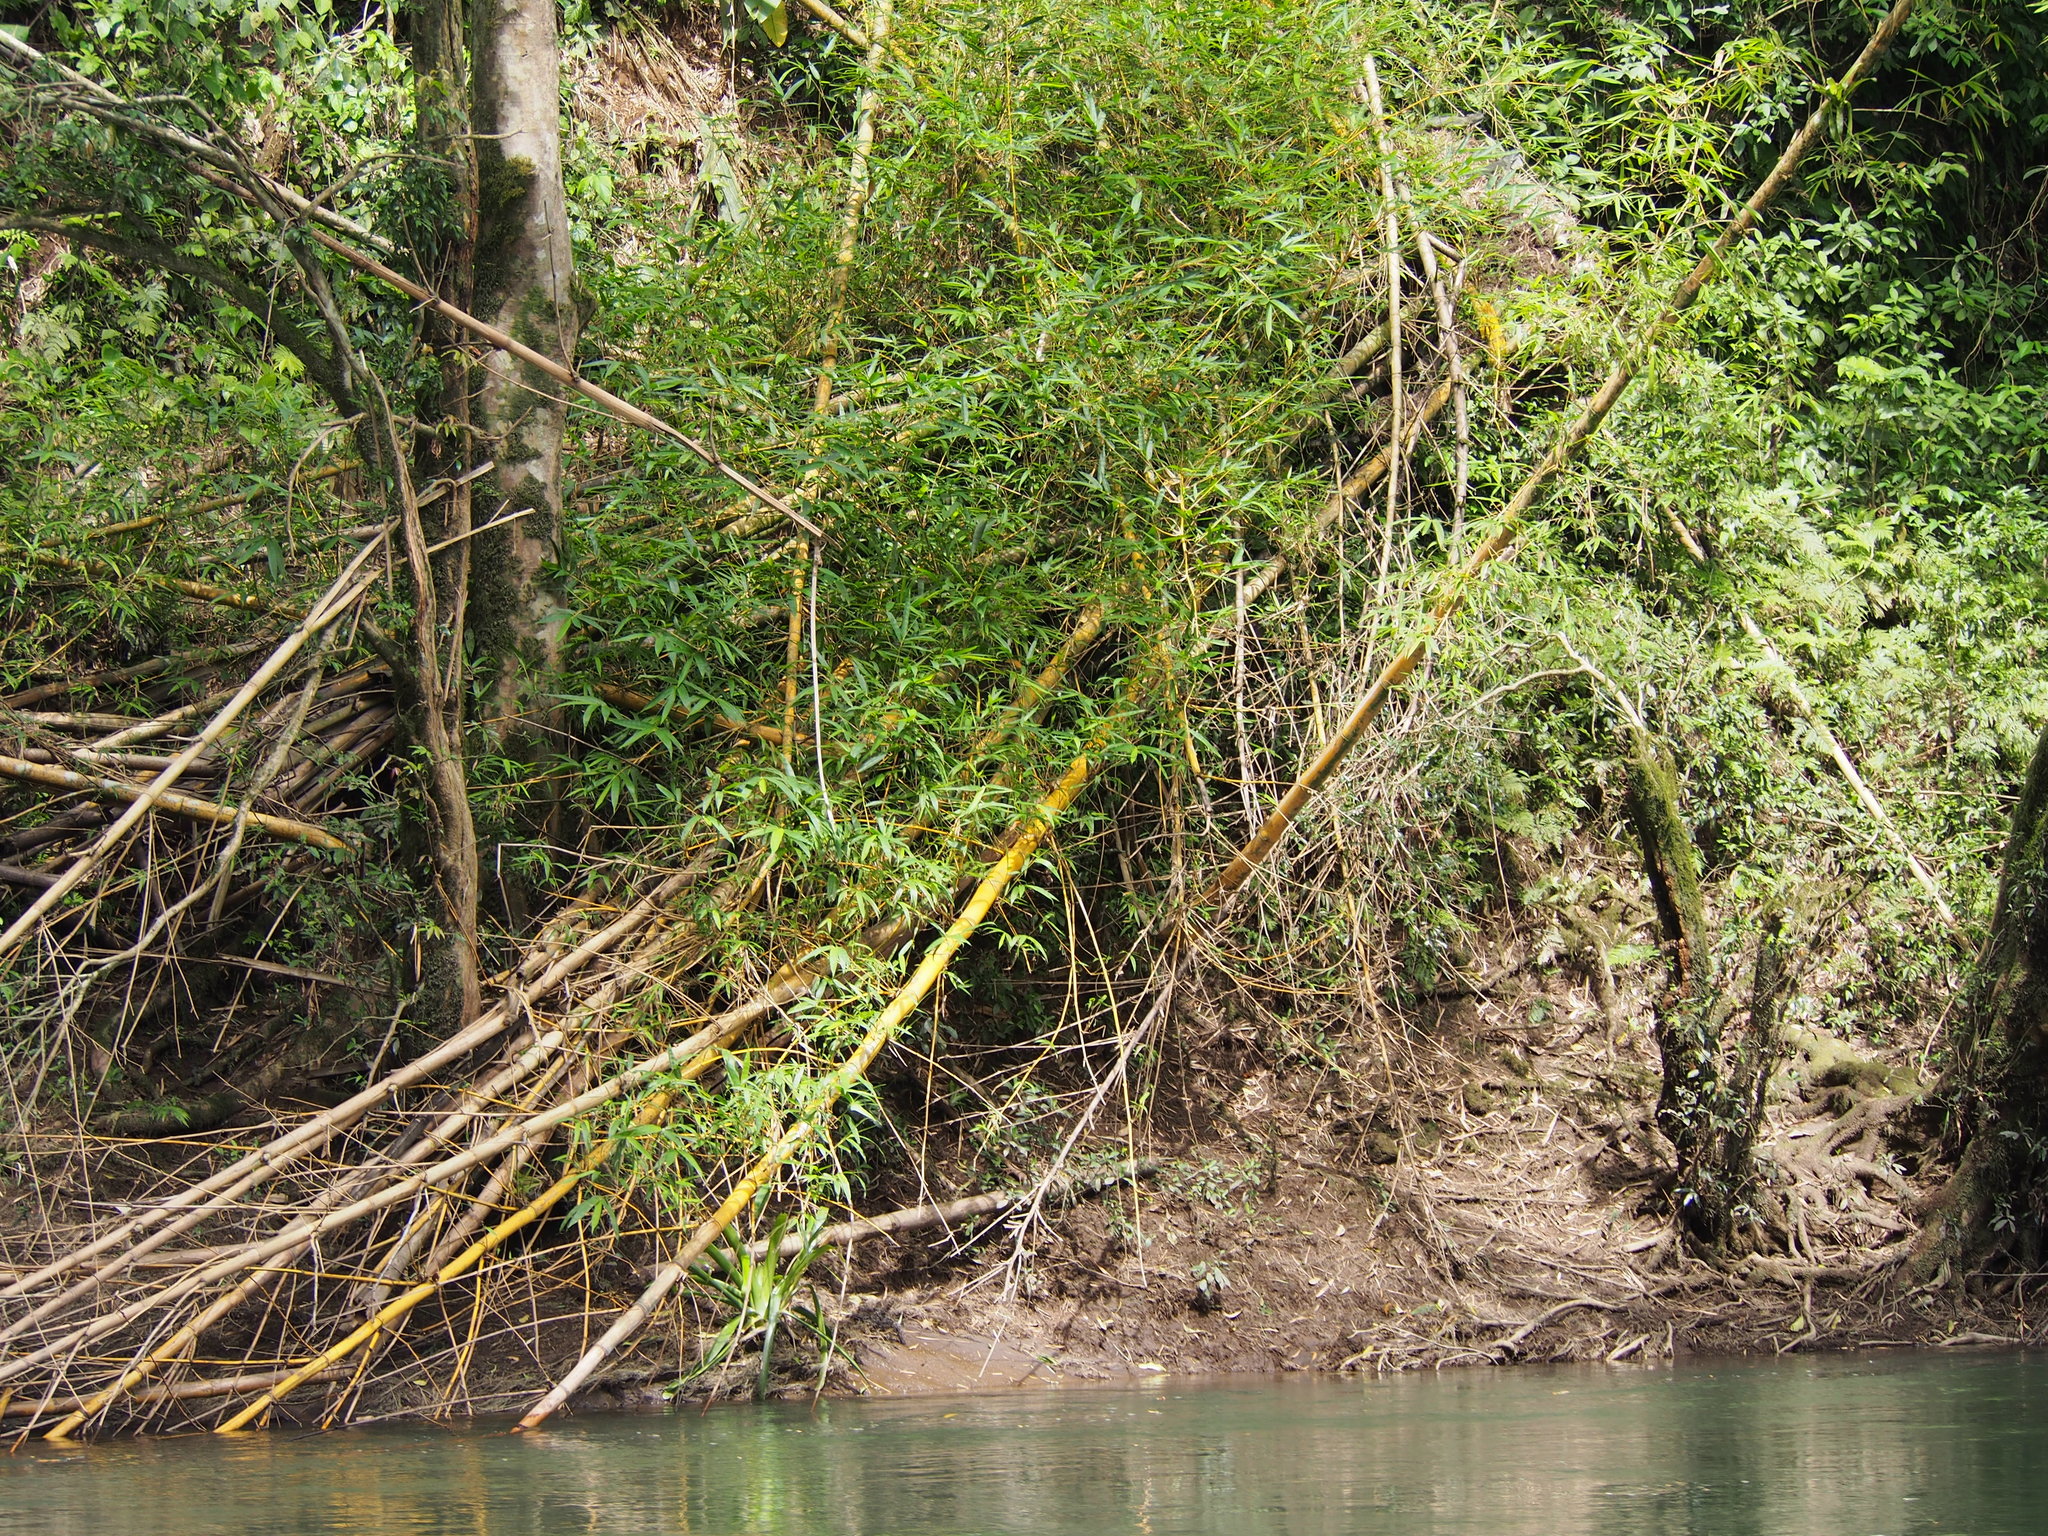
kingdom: Plantae
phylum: Tracheophyta
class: Liliopsida
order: Poales
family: Poaceae
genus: Bambusa
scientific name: Bambusa vulgaris
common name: Common bamboo
